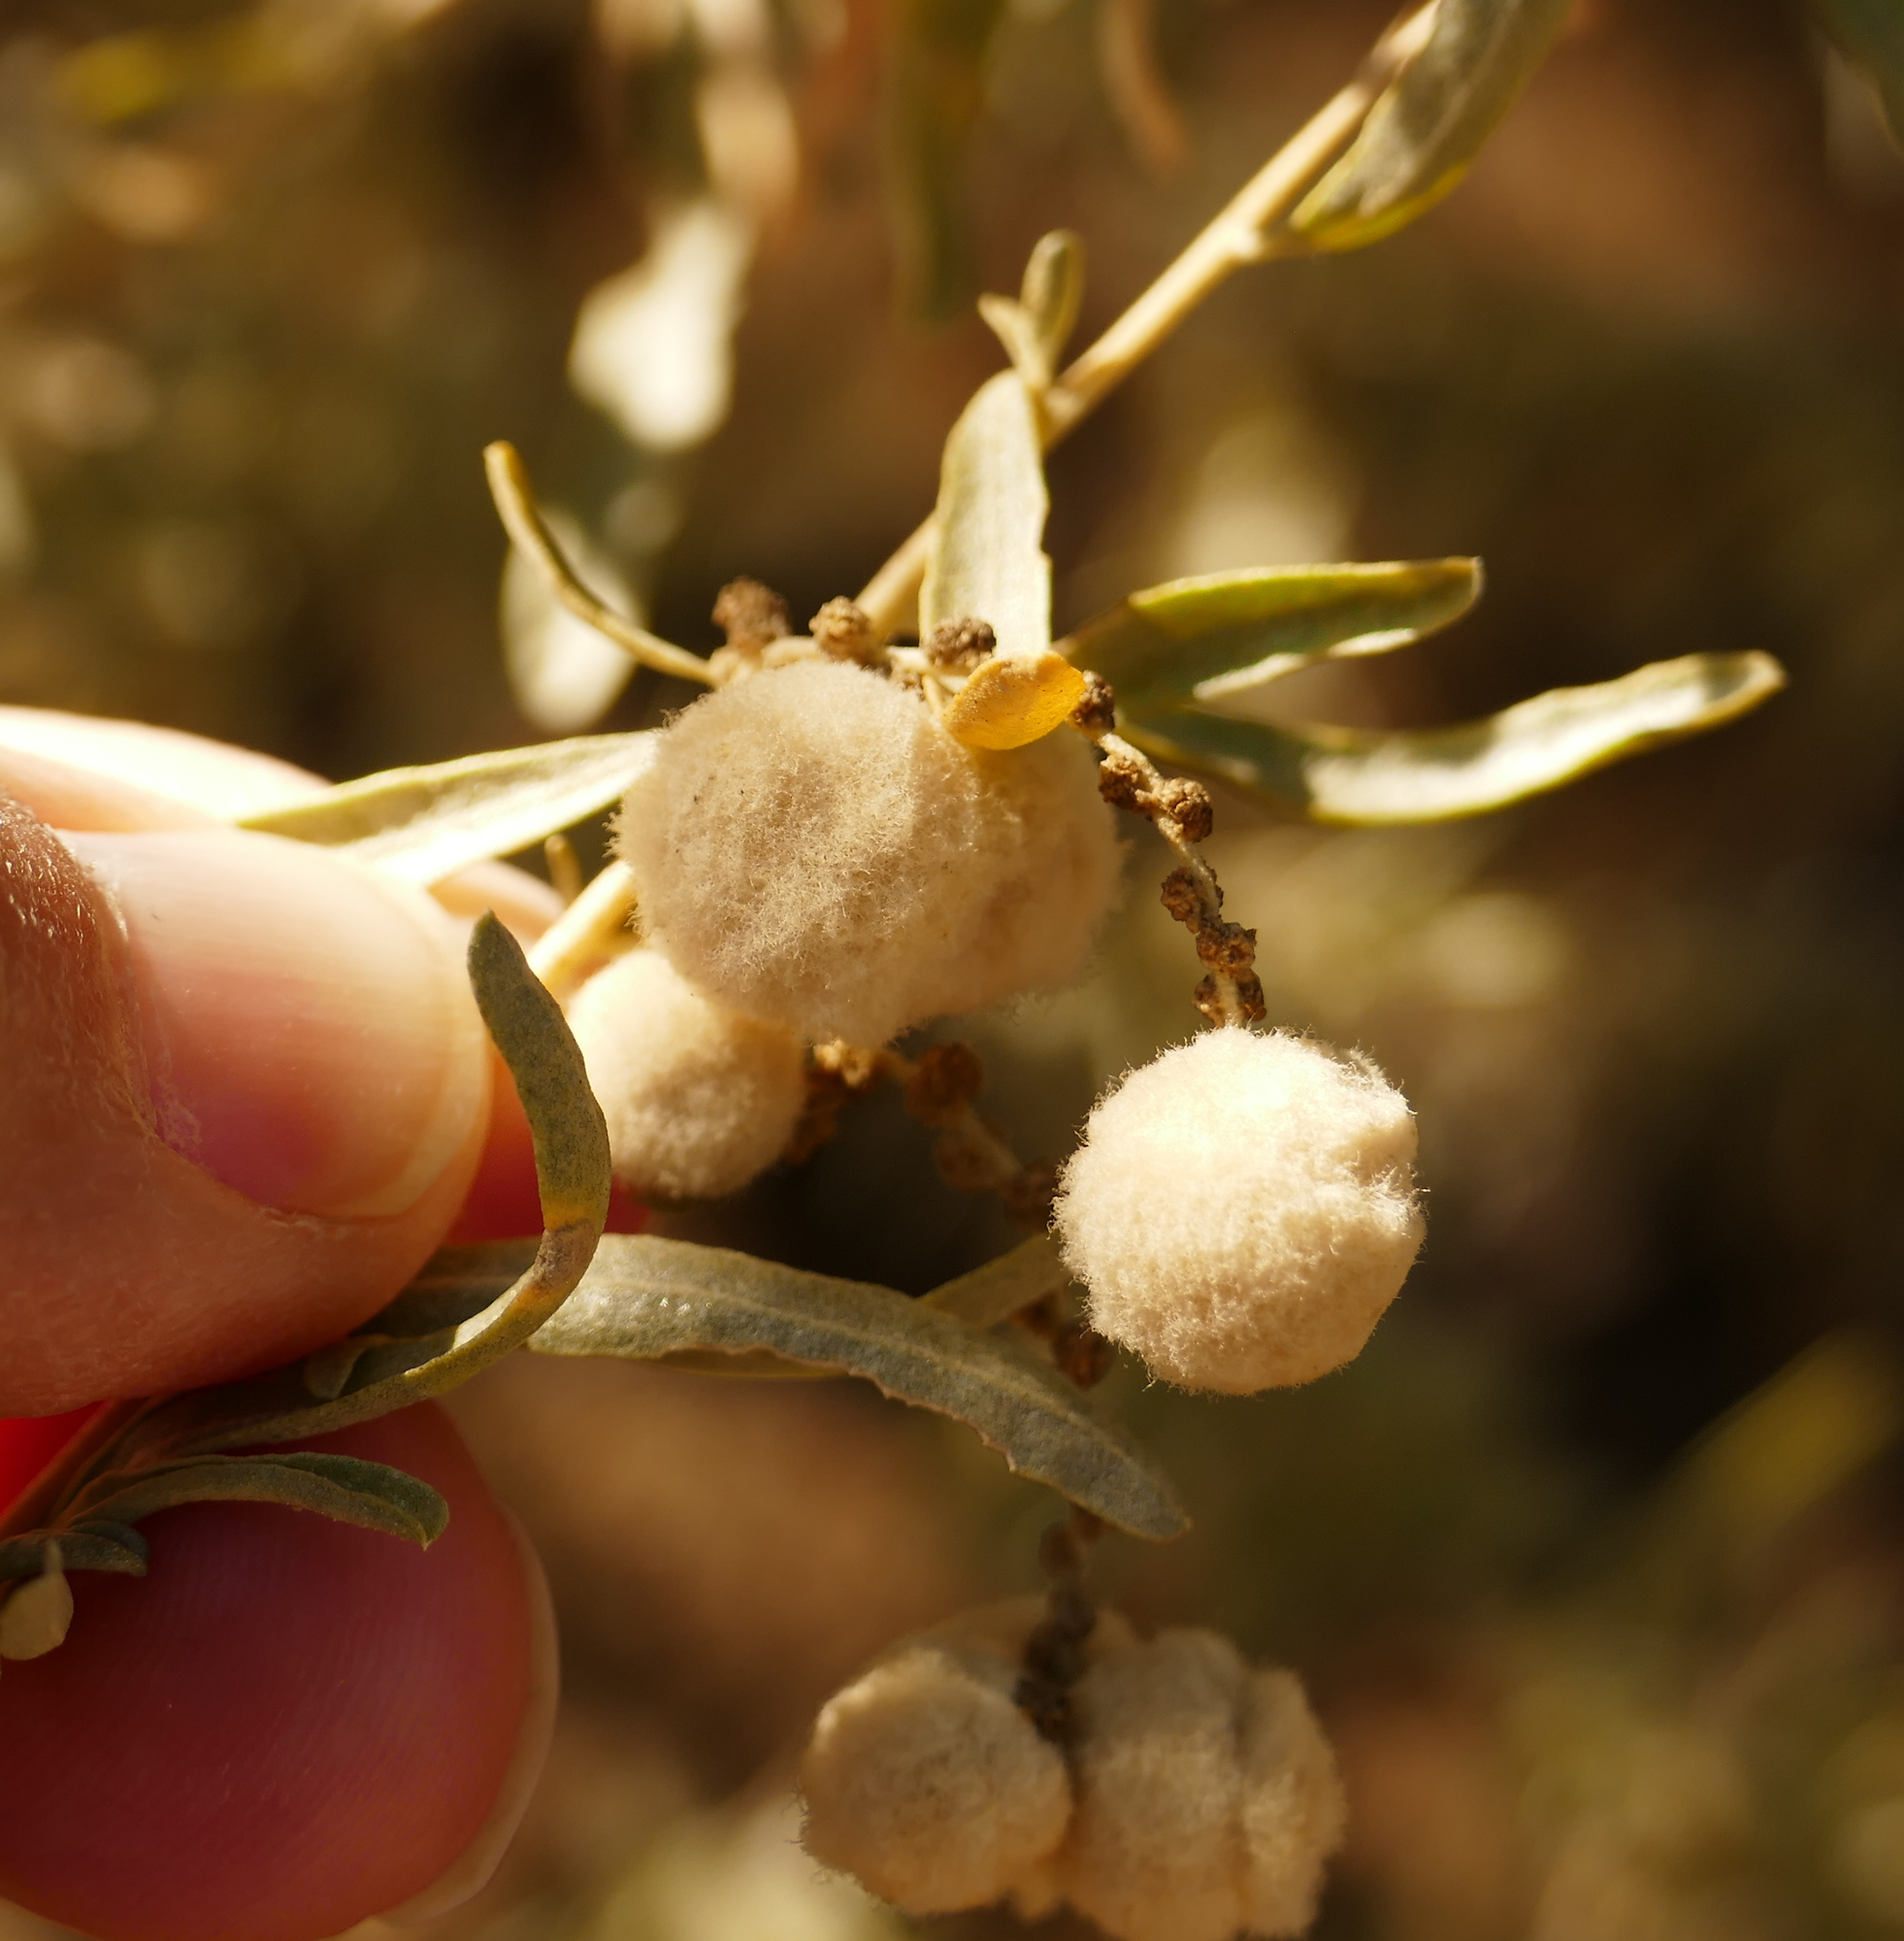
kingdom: Animalia
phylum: Arthropoda
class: Insecta
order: Diptera
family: Cecidomyiidae
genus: Asphondylia
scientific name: Asphondylia neomexicana
